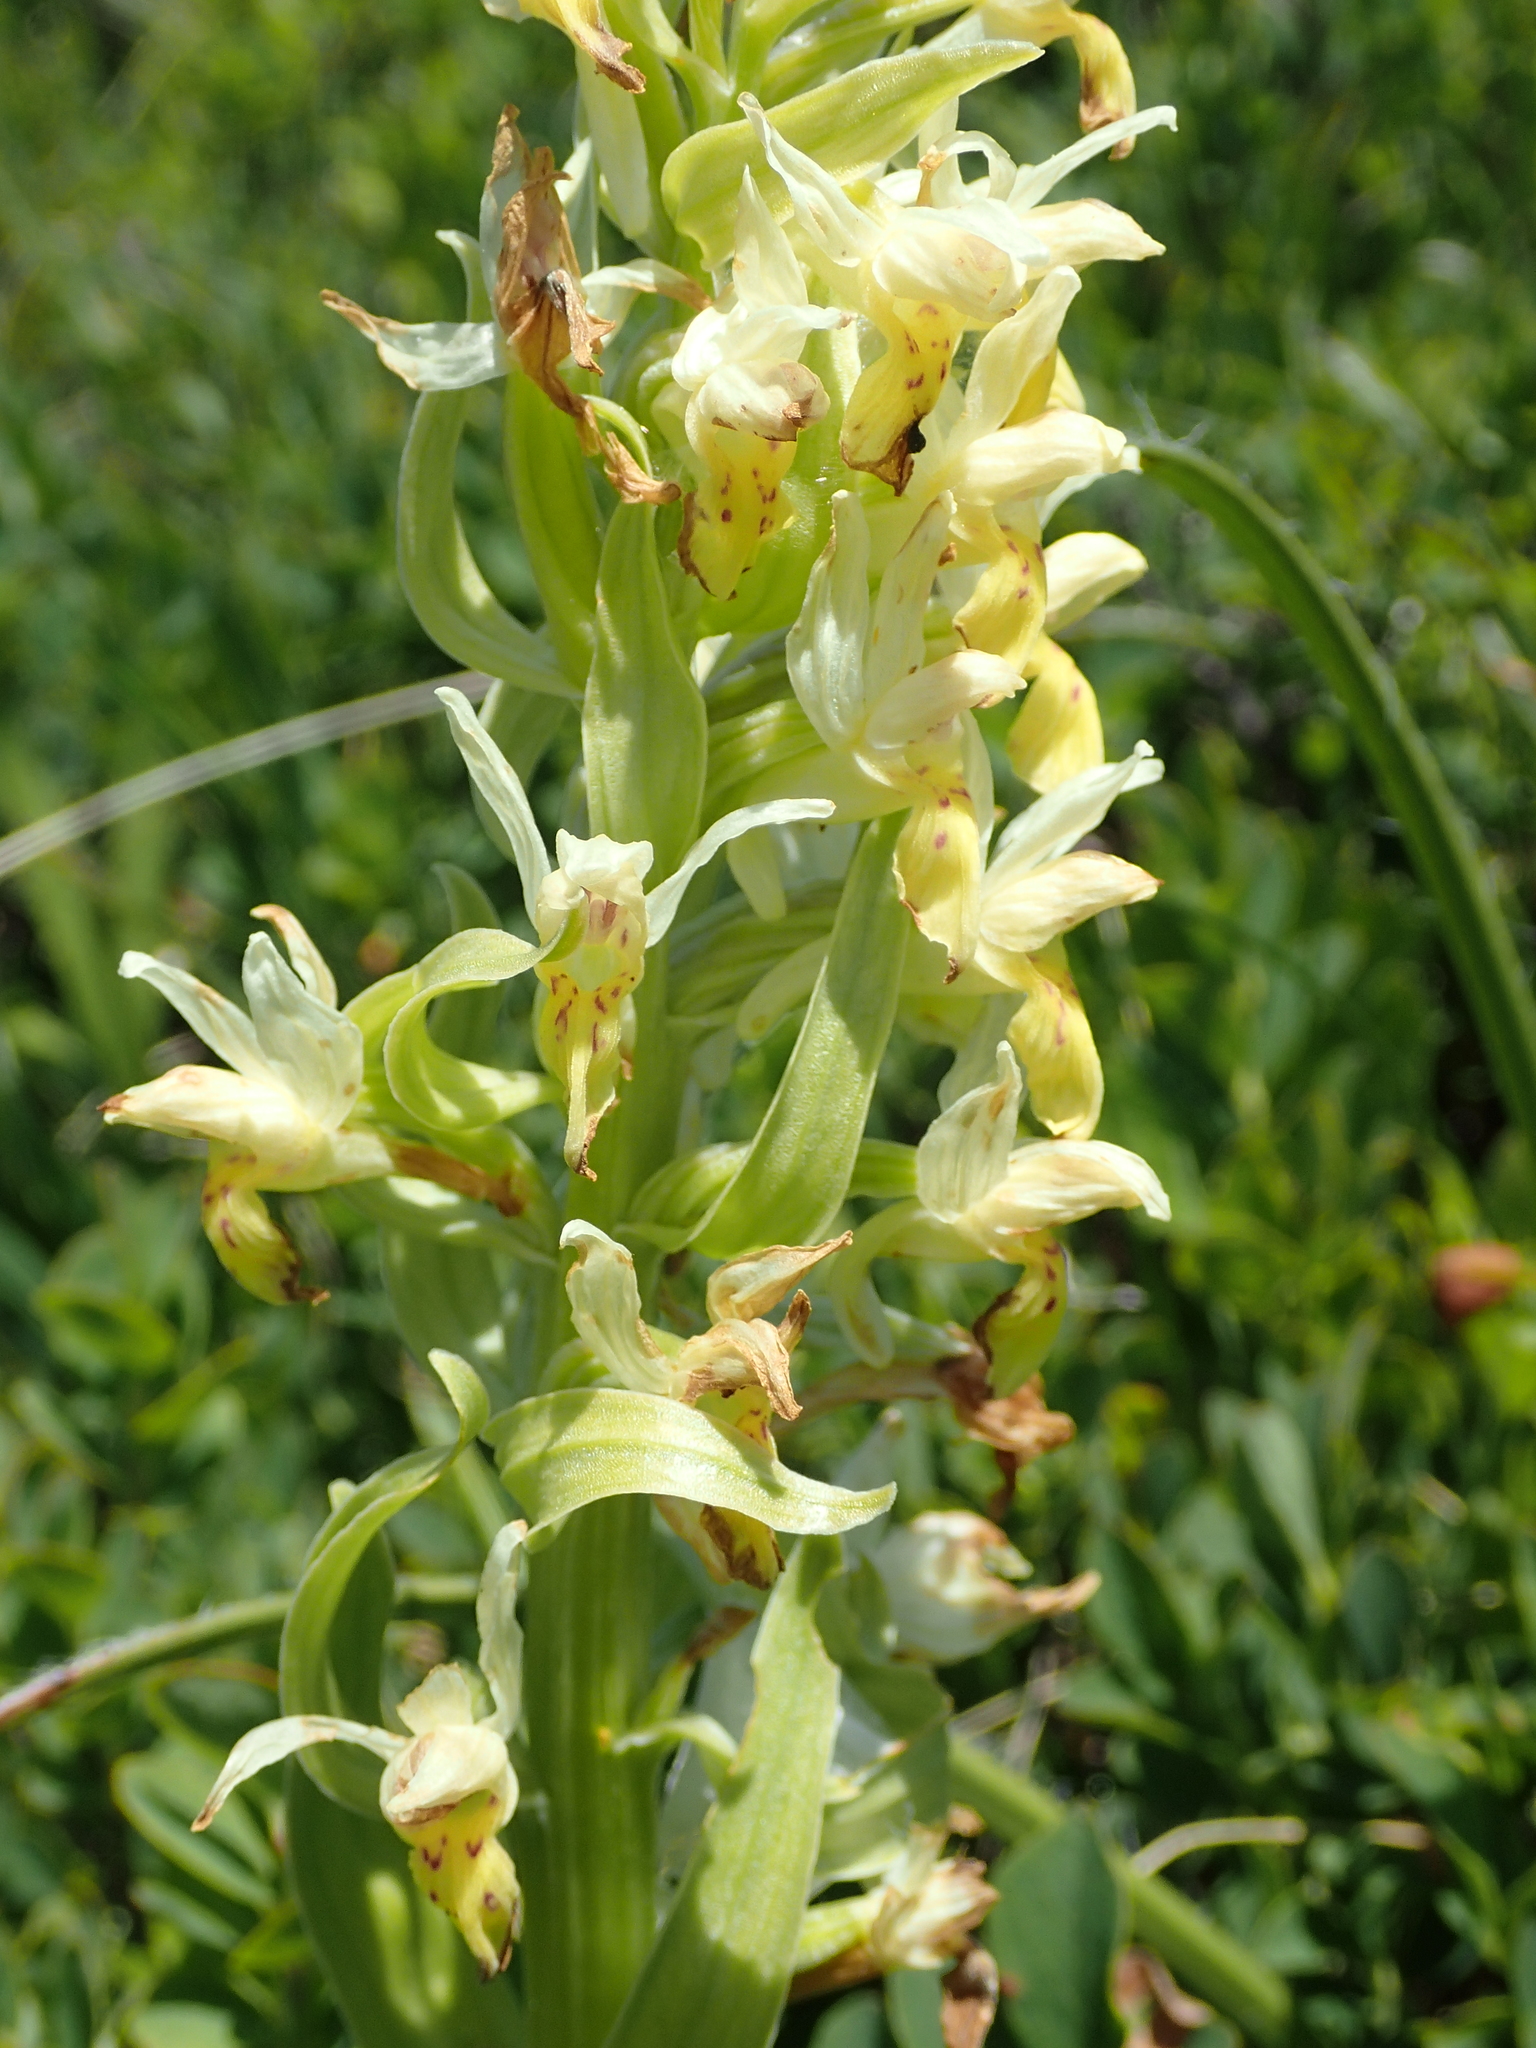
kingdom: Plantae
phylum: Tracheophyta
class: Liliopsida
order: Asparagales
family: Orchidaceae
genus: Dactylorhiza
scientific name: Dactylorhiza sambucina
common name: Elder-flowered orchid
